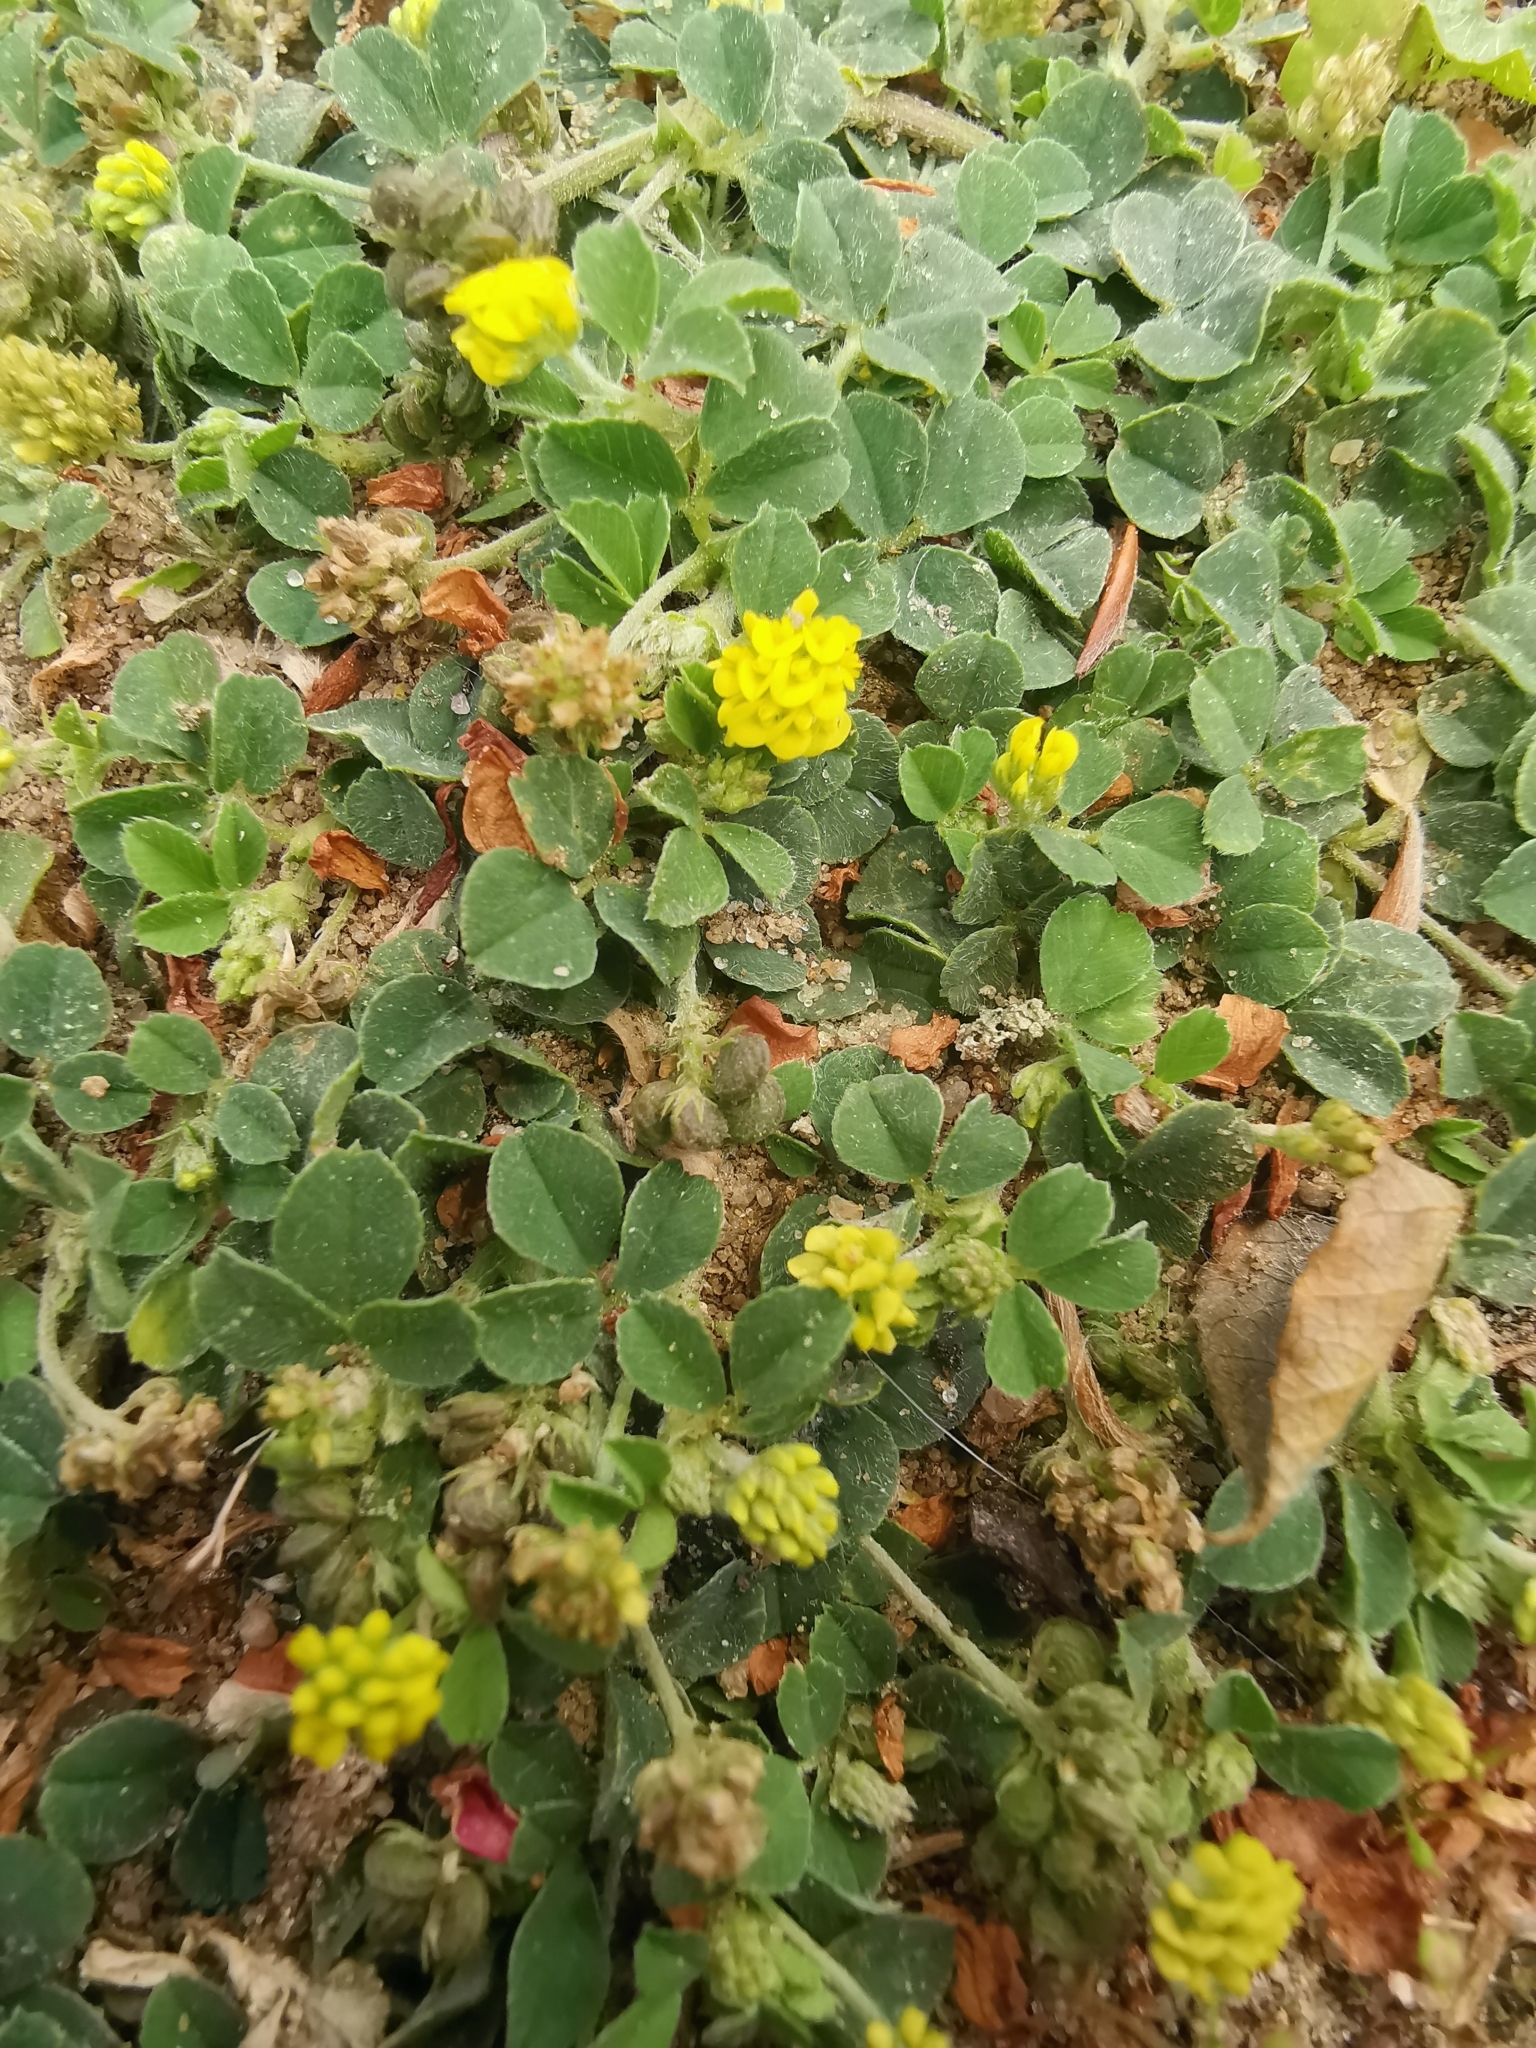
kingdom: Plantae
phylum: Tracheophyta
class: Magnoliopsida
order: Fabales
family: Fabaceae
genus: Medicago
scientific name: Medicago lupulina
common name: Black medick
